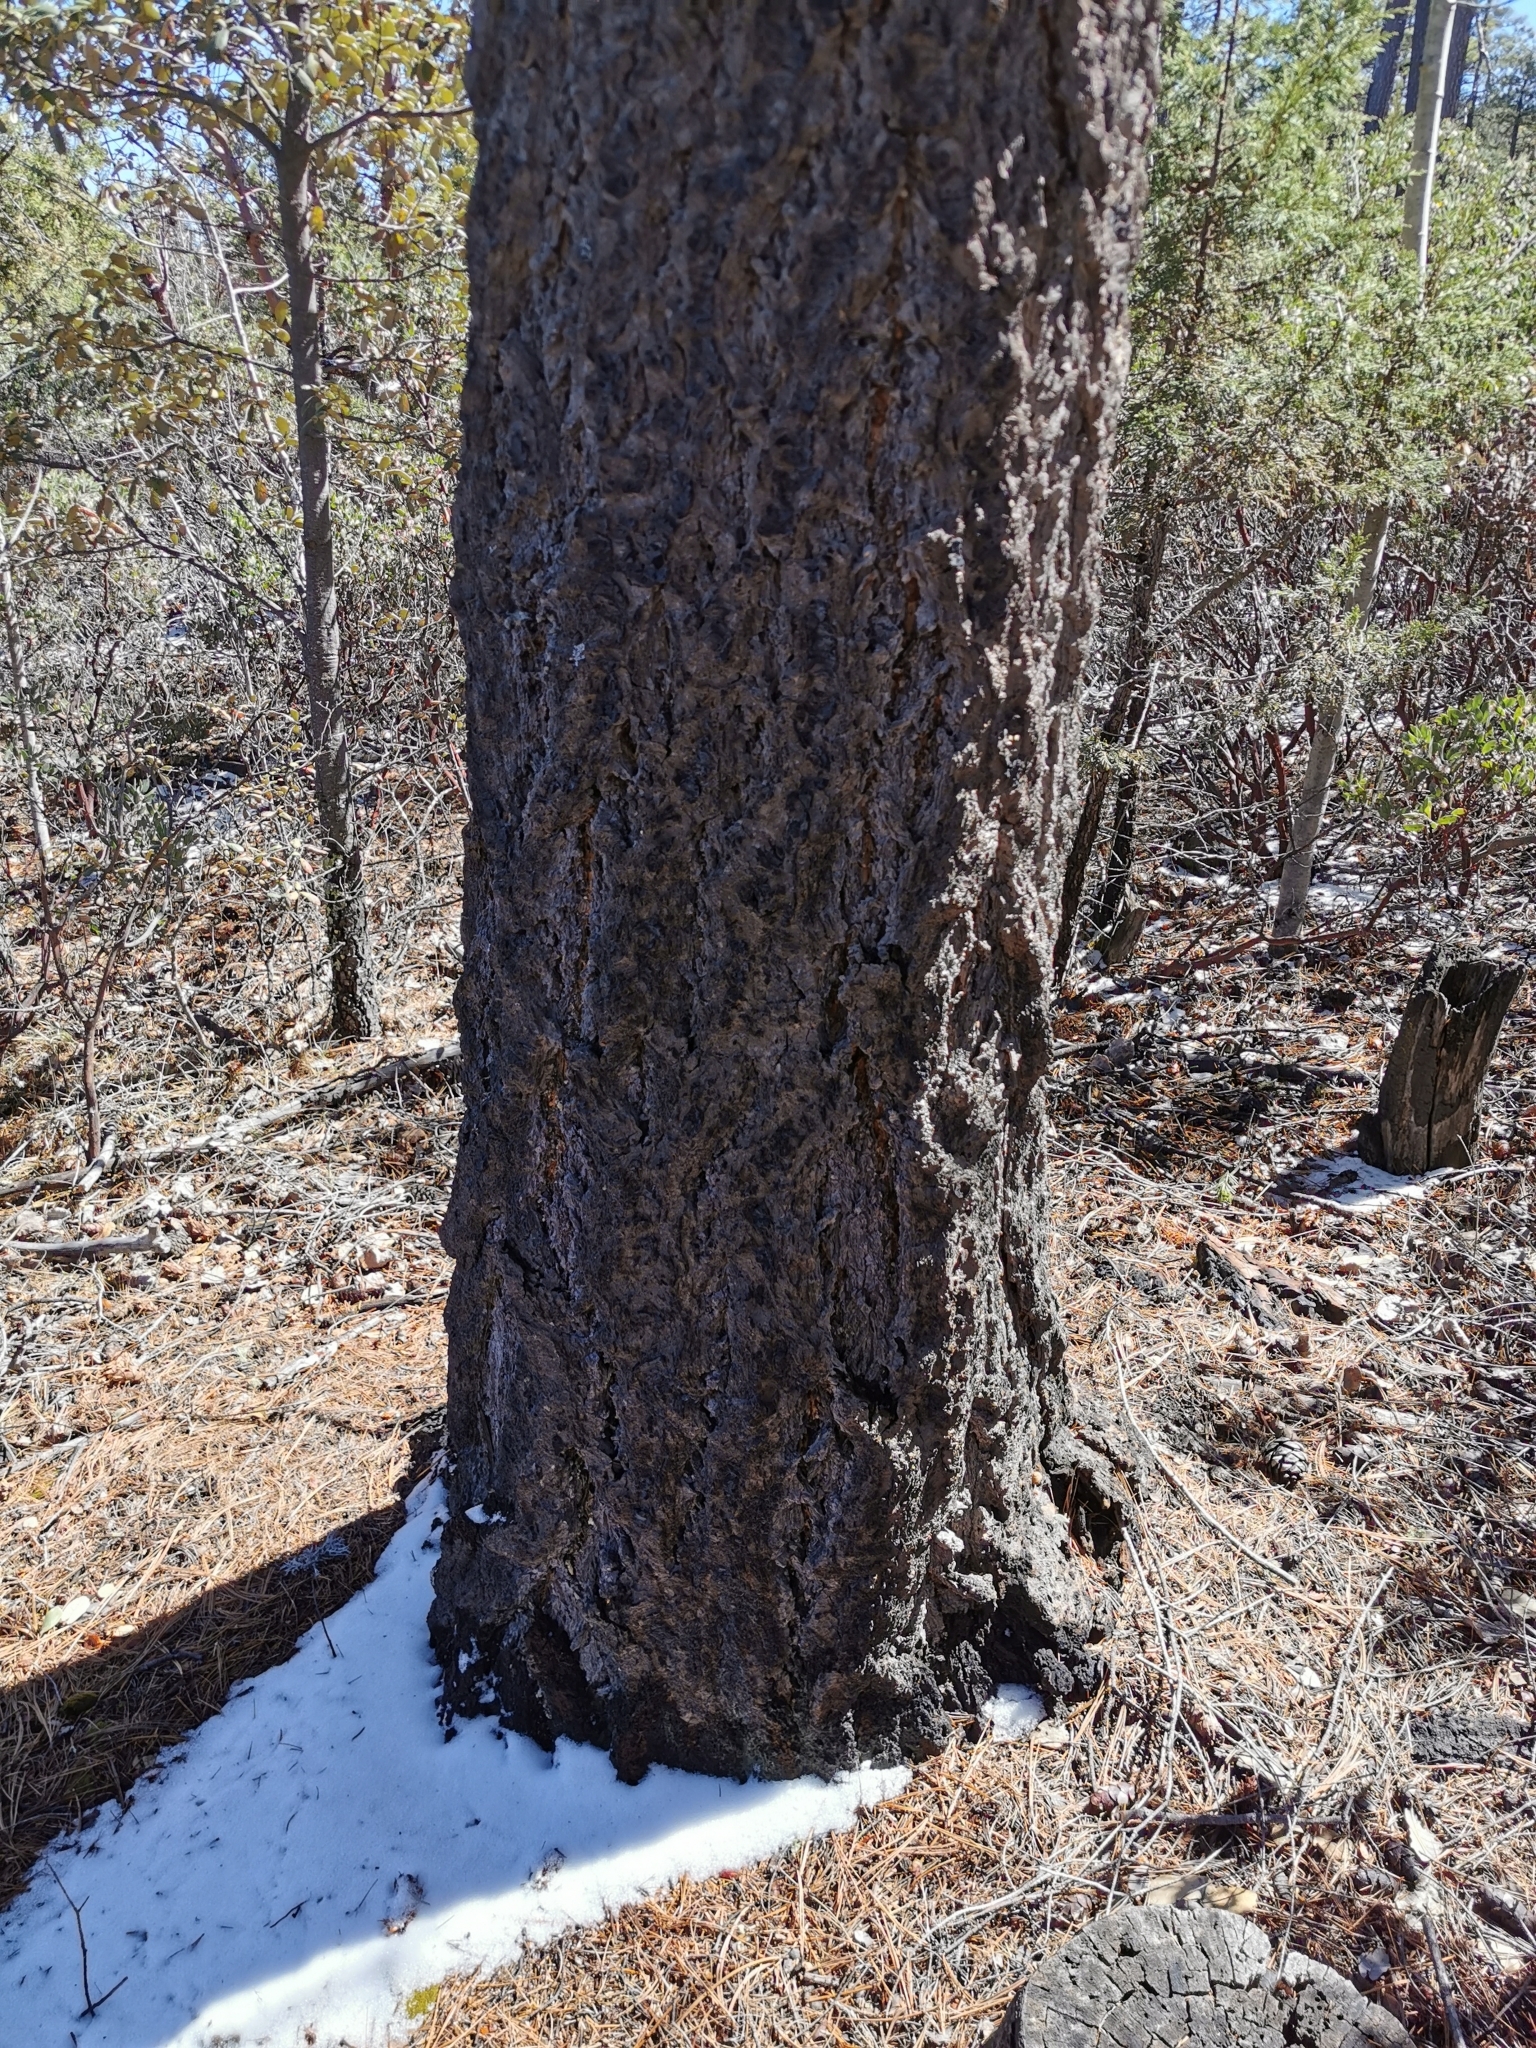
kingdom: Plantae
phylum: Tracheophyta
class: Pinopsida
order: Pinales
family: Pinaceae
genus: Pseudotsuga
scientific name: Pseudotsuga menziesii
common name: Douglas fir
